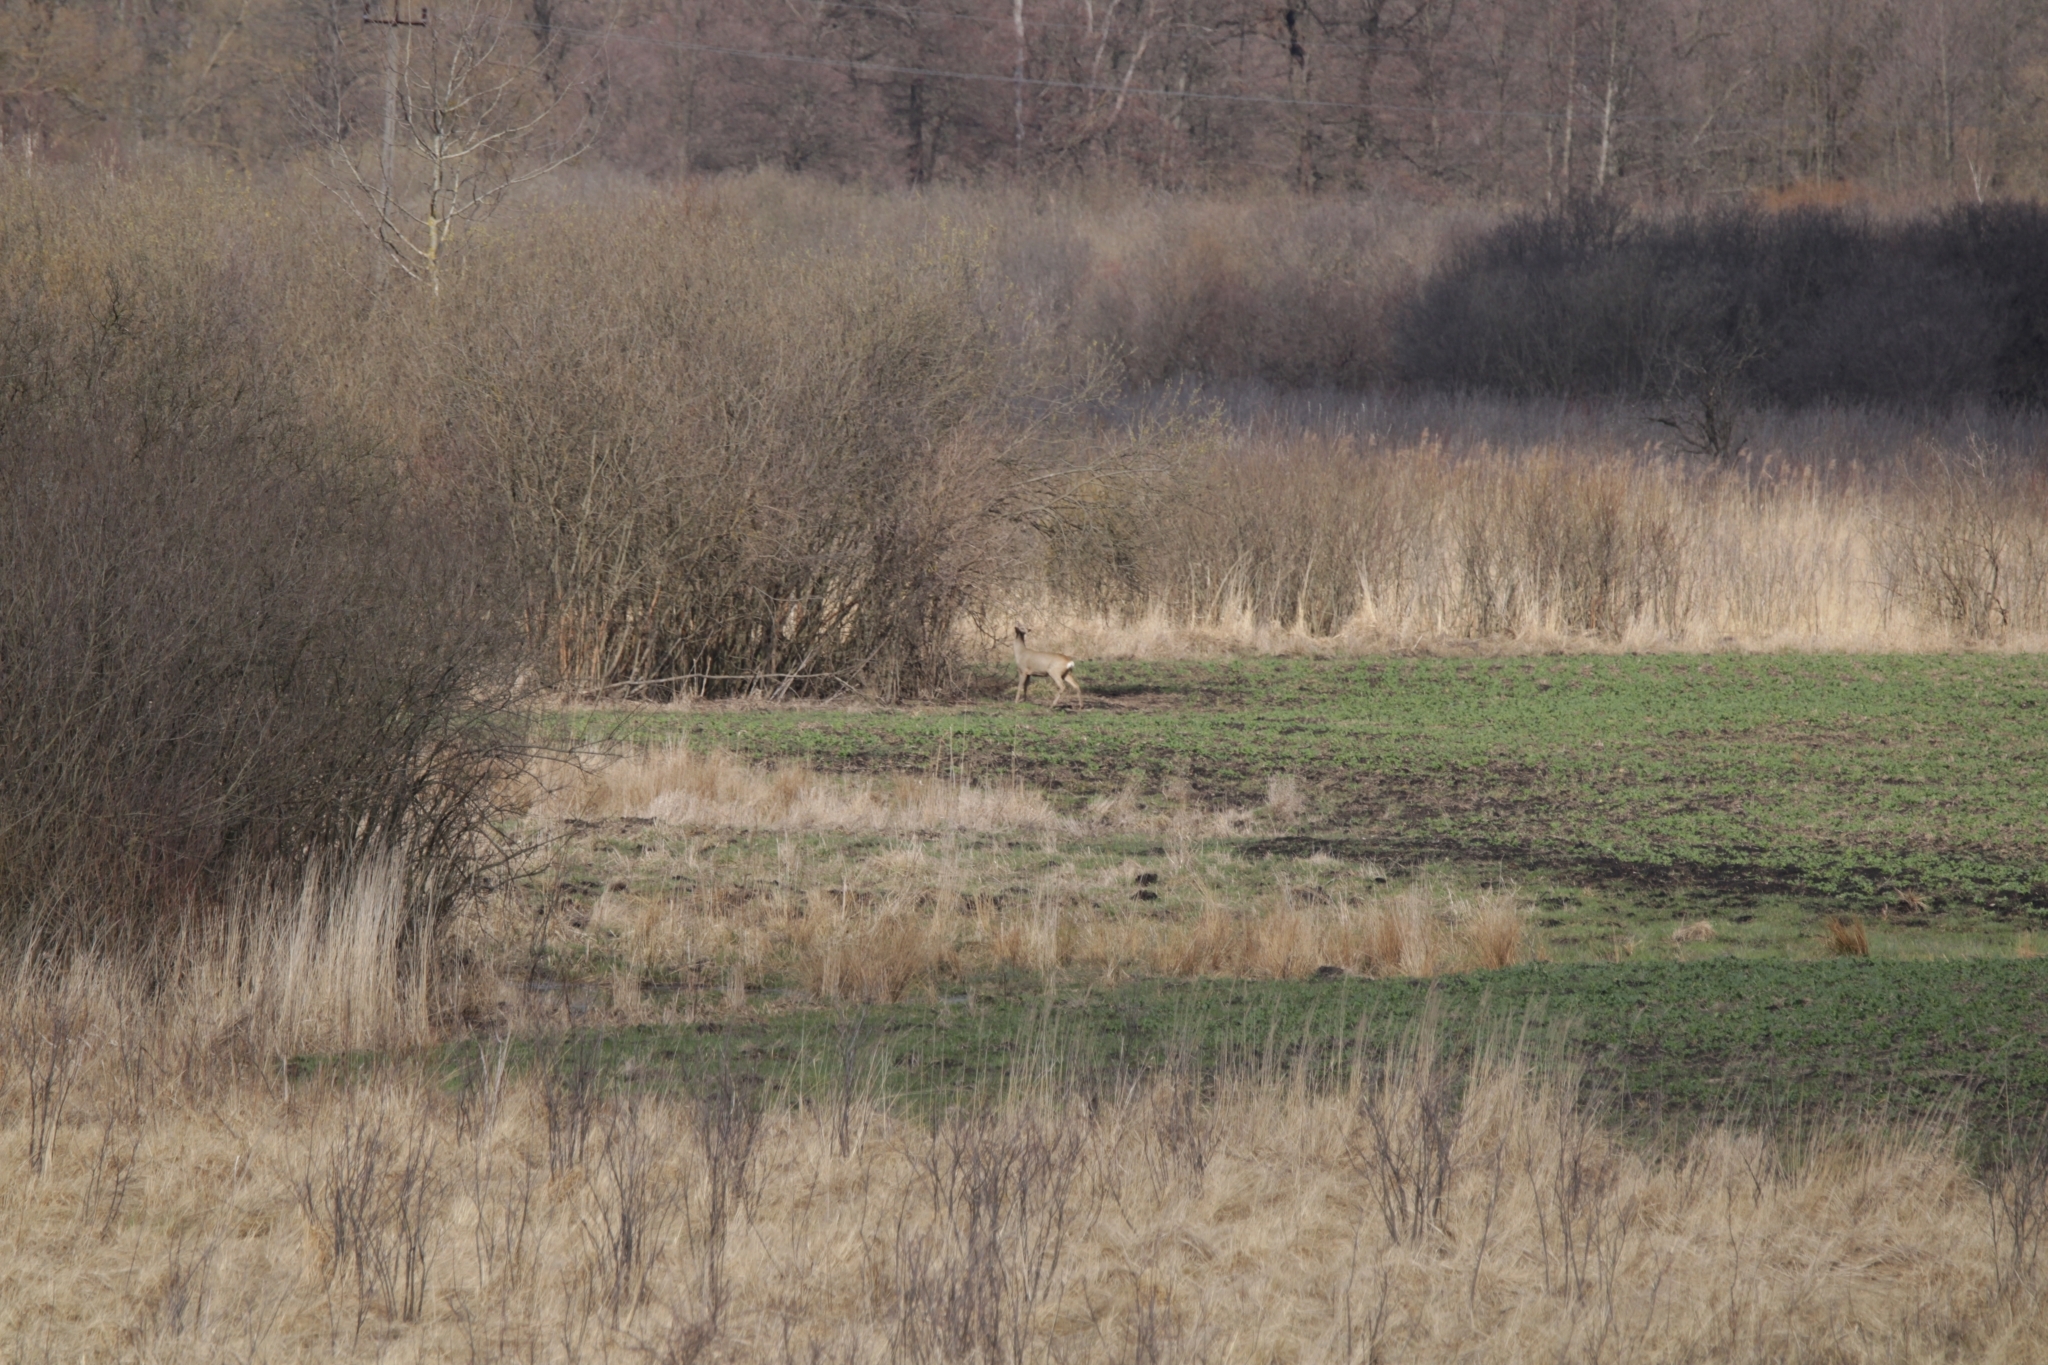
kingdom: Animalia
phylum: Chordata
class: Mammalia
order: Artiodactyla
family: Cervidae
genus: Capreolus
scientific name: Capreolus capreolus
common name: Western roe deer
